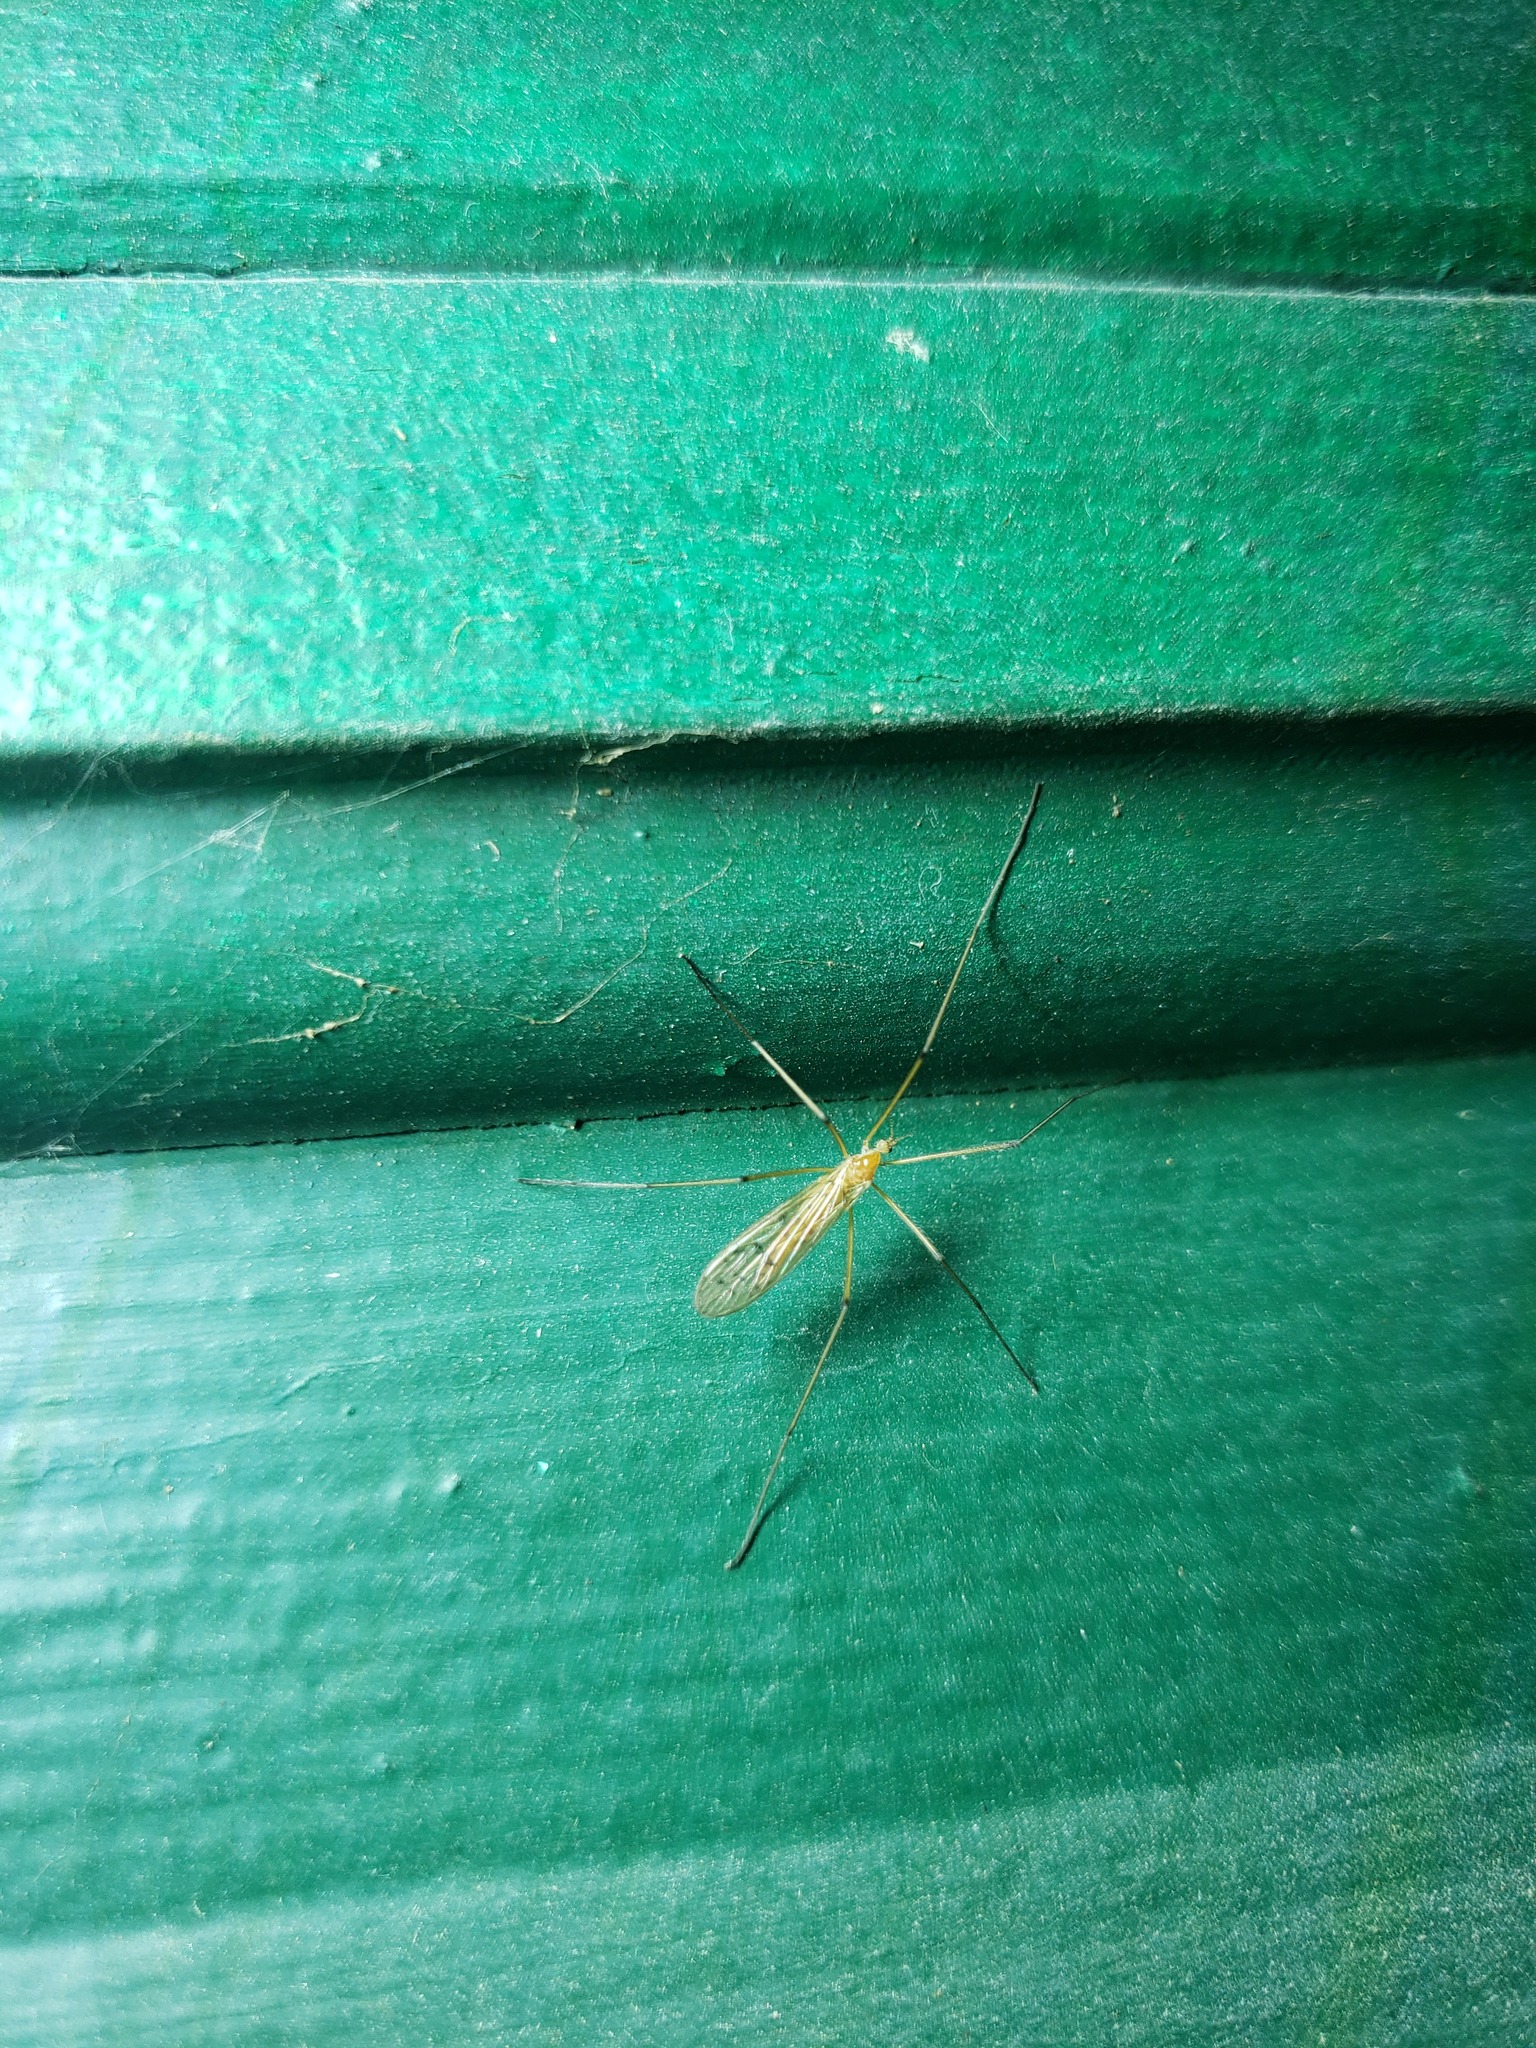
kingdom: Animalia
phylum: Arthropoda
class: Insecta
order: Diptera
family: Limoniidae
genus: Cladura
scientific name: Cladura flavoferruginea
